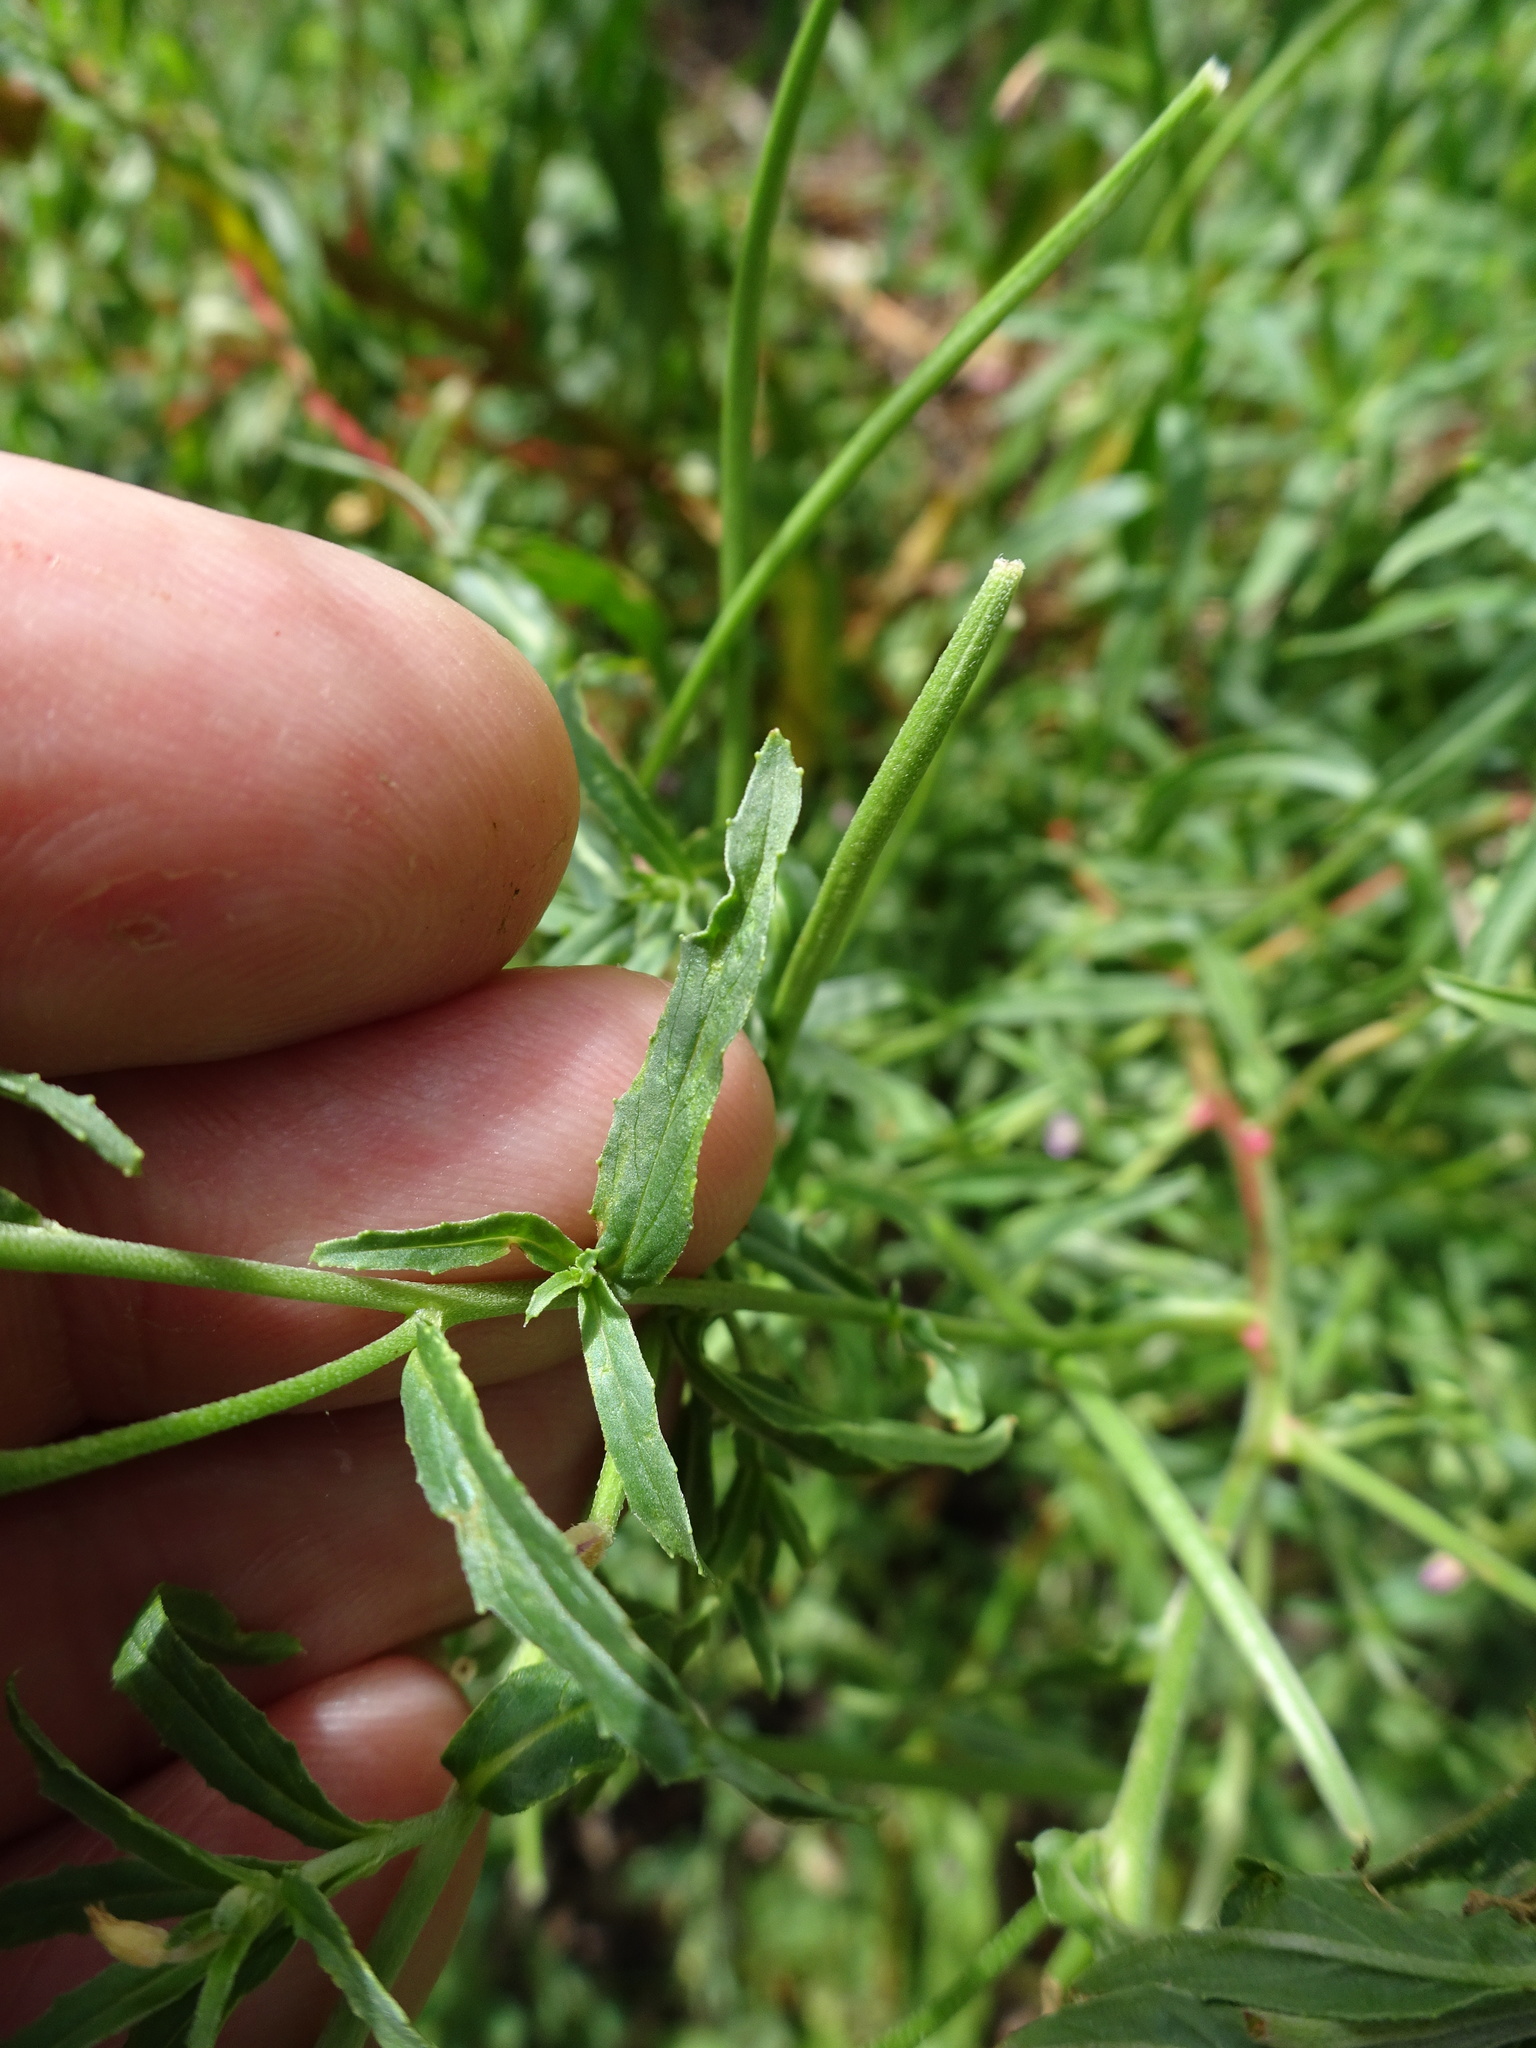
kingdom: Plantae
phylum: Tracheophyta
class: Magnoliopsida
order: Myrtales
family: Onagraceae
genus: Epilobium
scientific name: Epilobium ciliatum
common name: American willowherb
